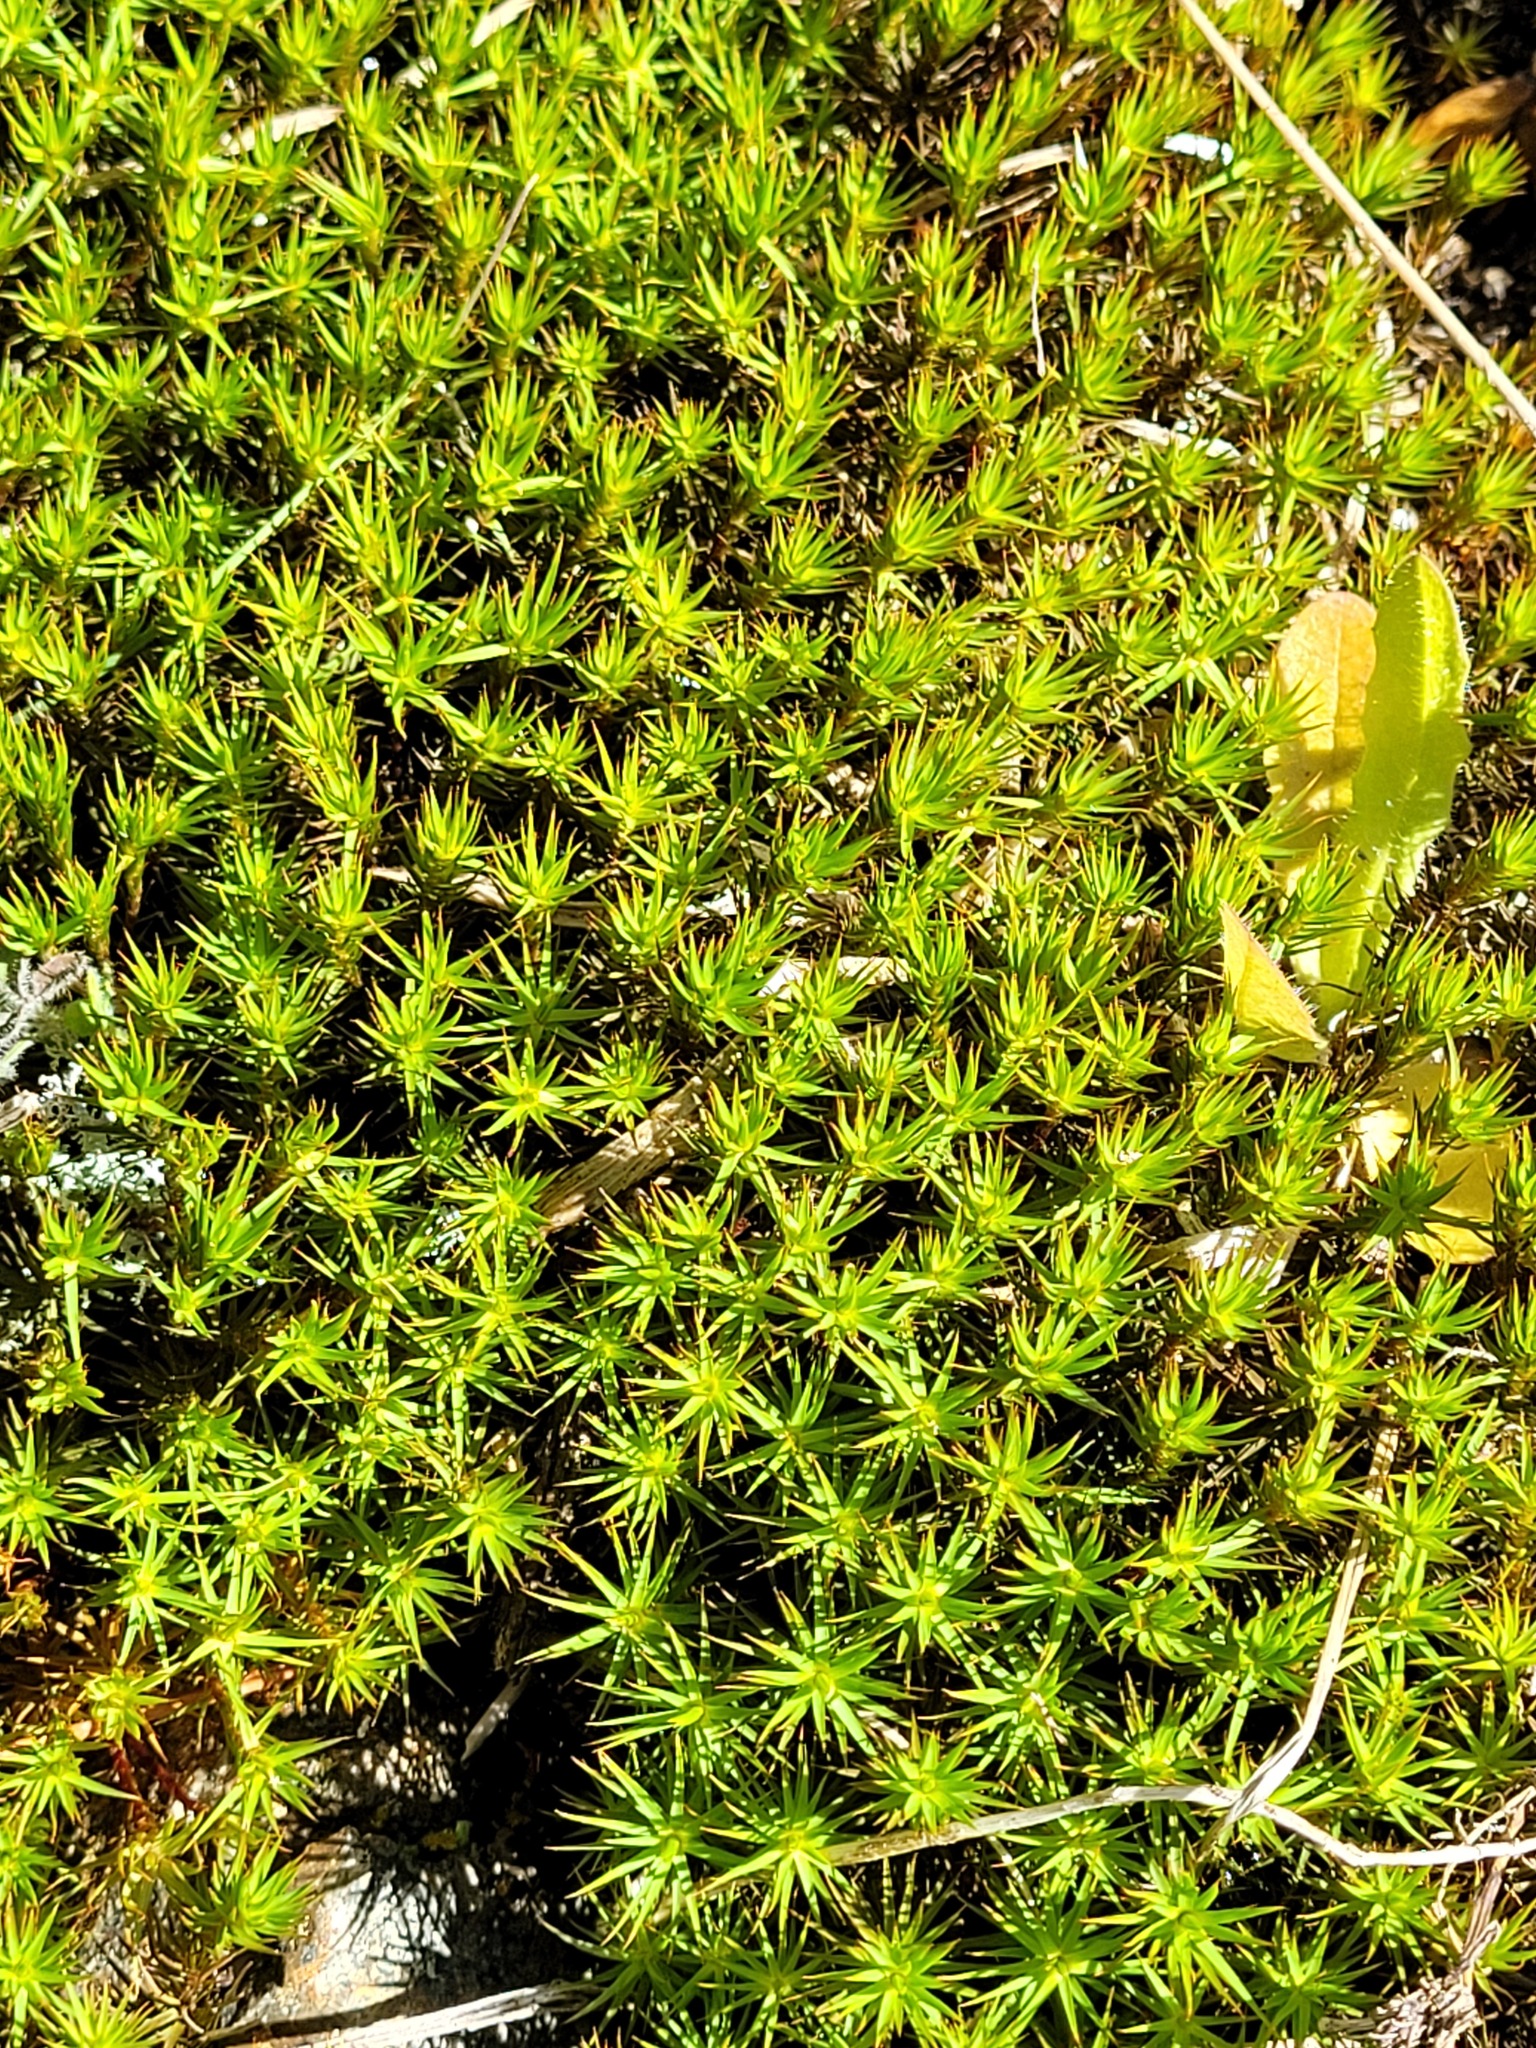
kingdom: Plantae
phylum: Bryophyta
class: Polytrichopsida
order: Polytrichales
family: Polytrichaceae
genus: Polytrichum
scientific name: Polytrichum juniperinum
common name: Juniper haircap moss
